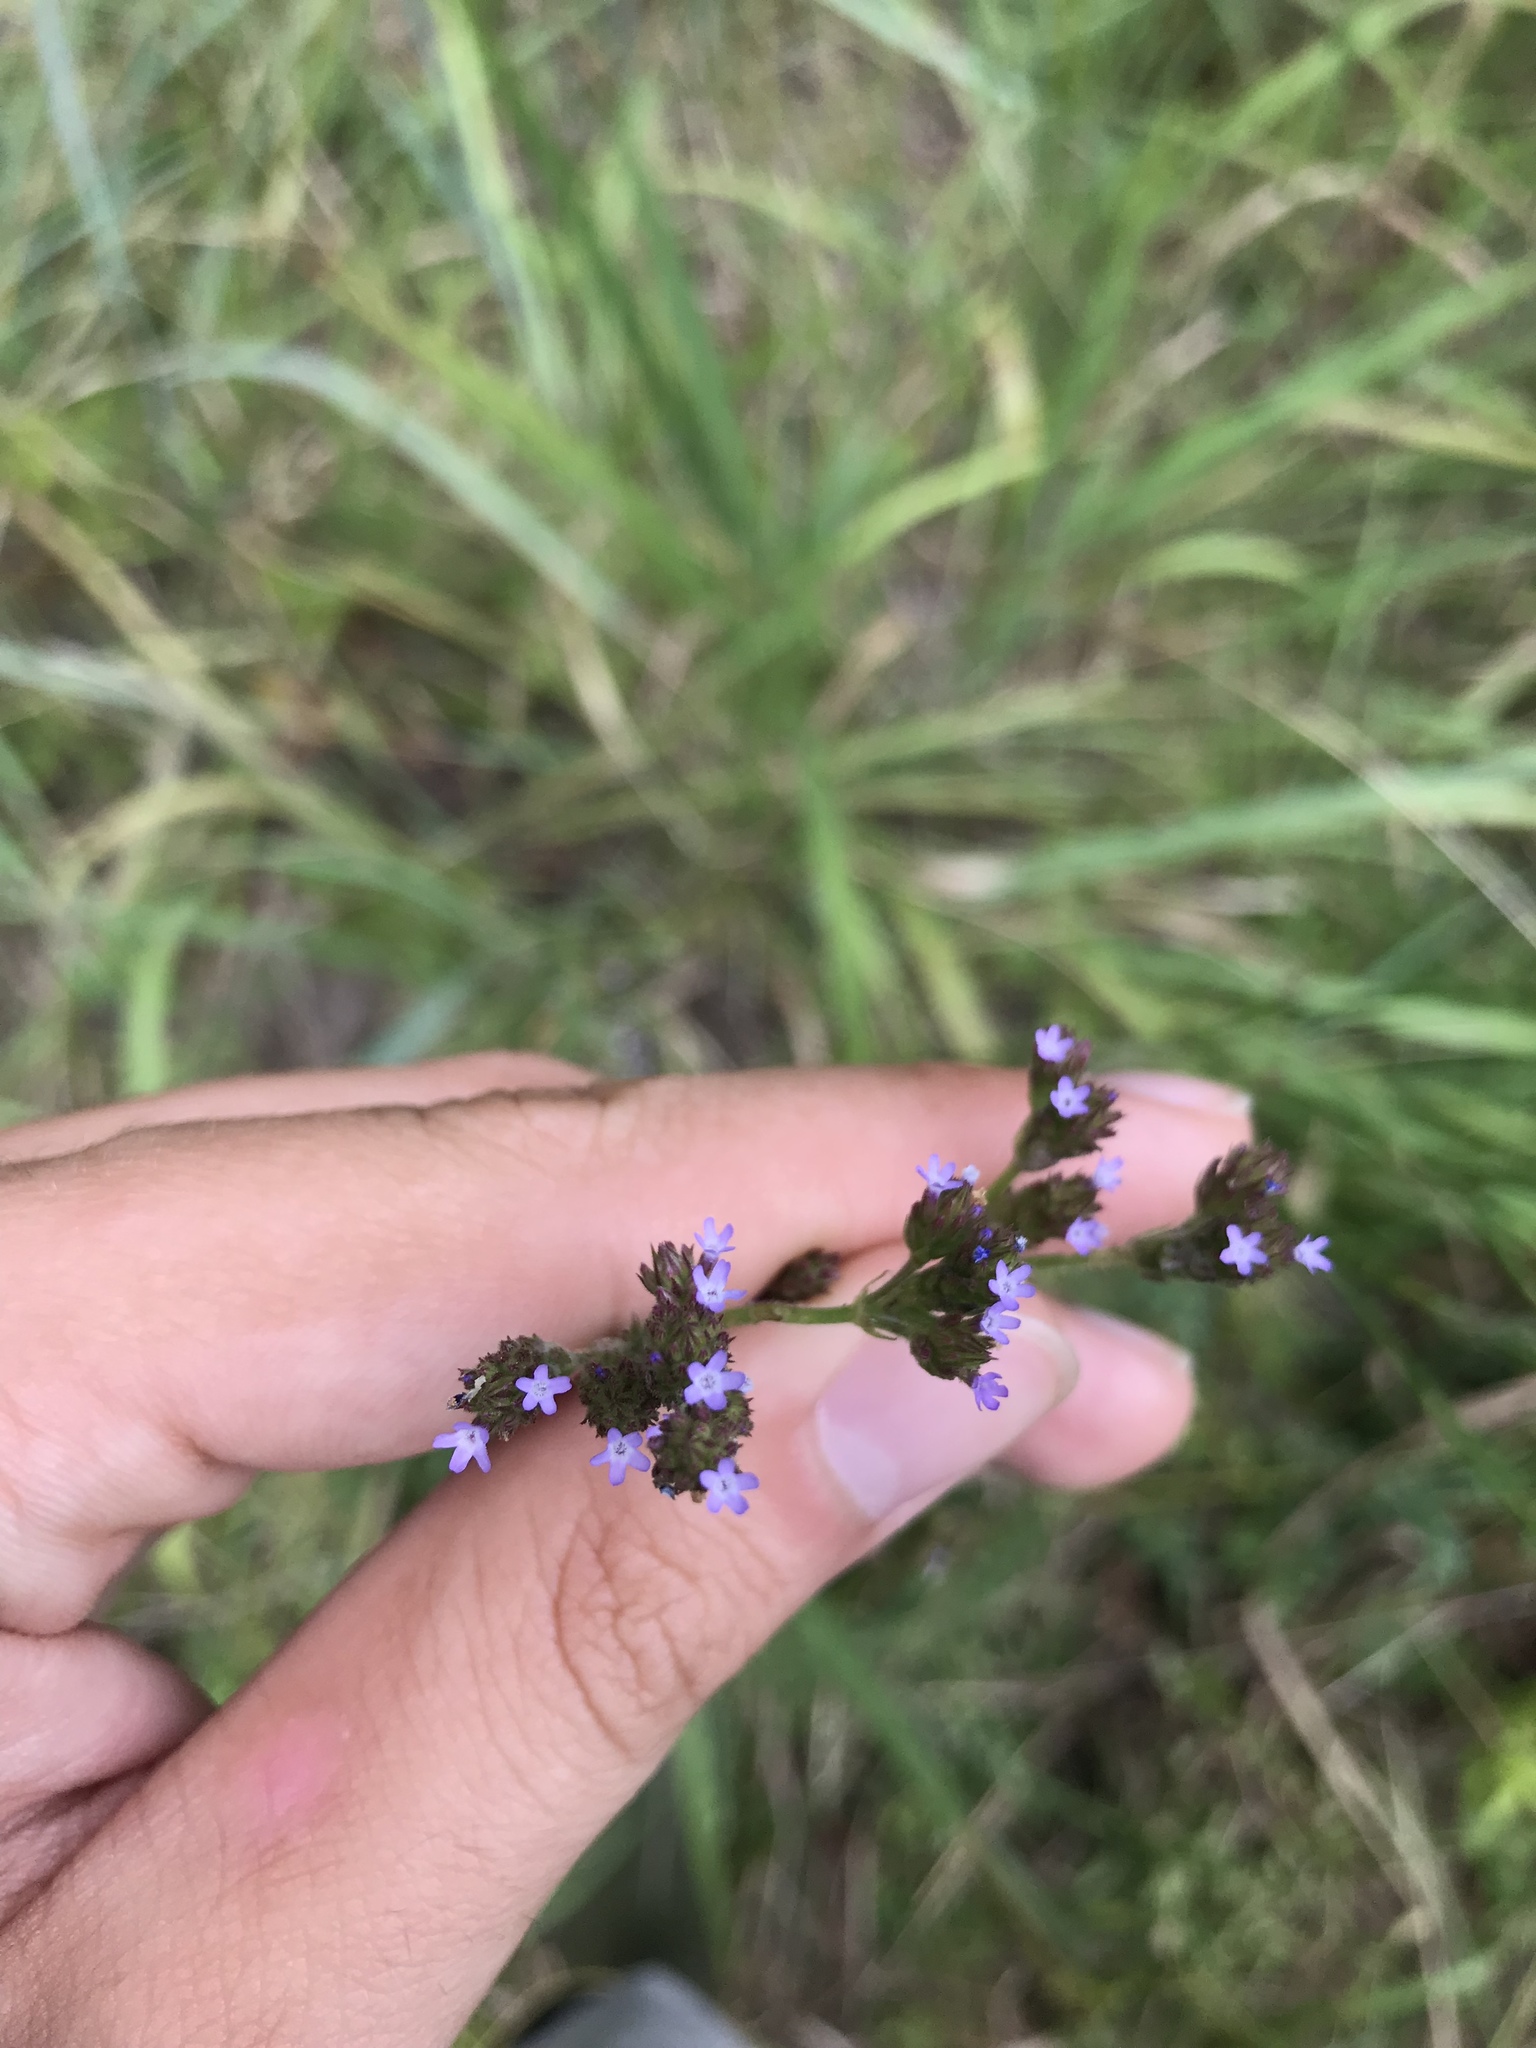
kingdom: Plantae
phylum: Tracheophyta
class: Magnoliopsida
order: Lamiales
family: Verbenaceae
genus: Verbena
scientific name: Verbena brasiliensis
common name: Brazilian vervain
